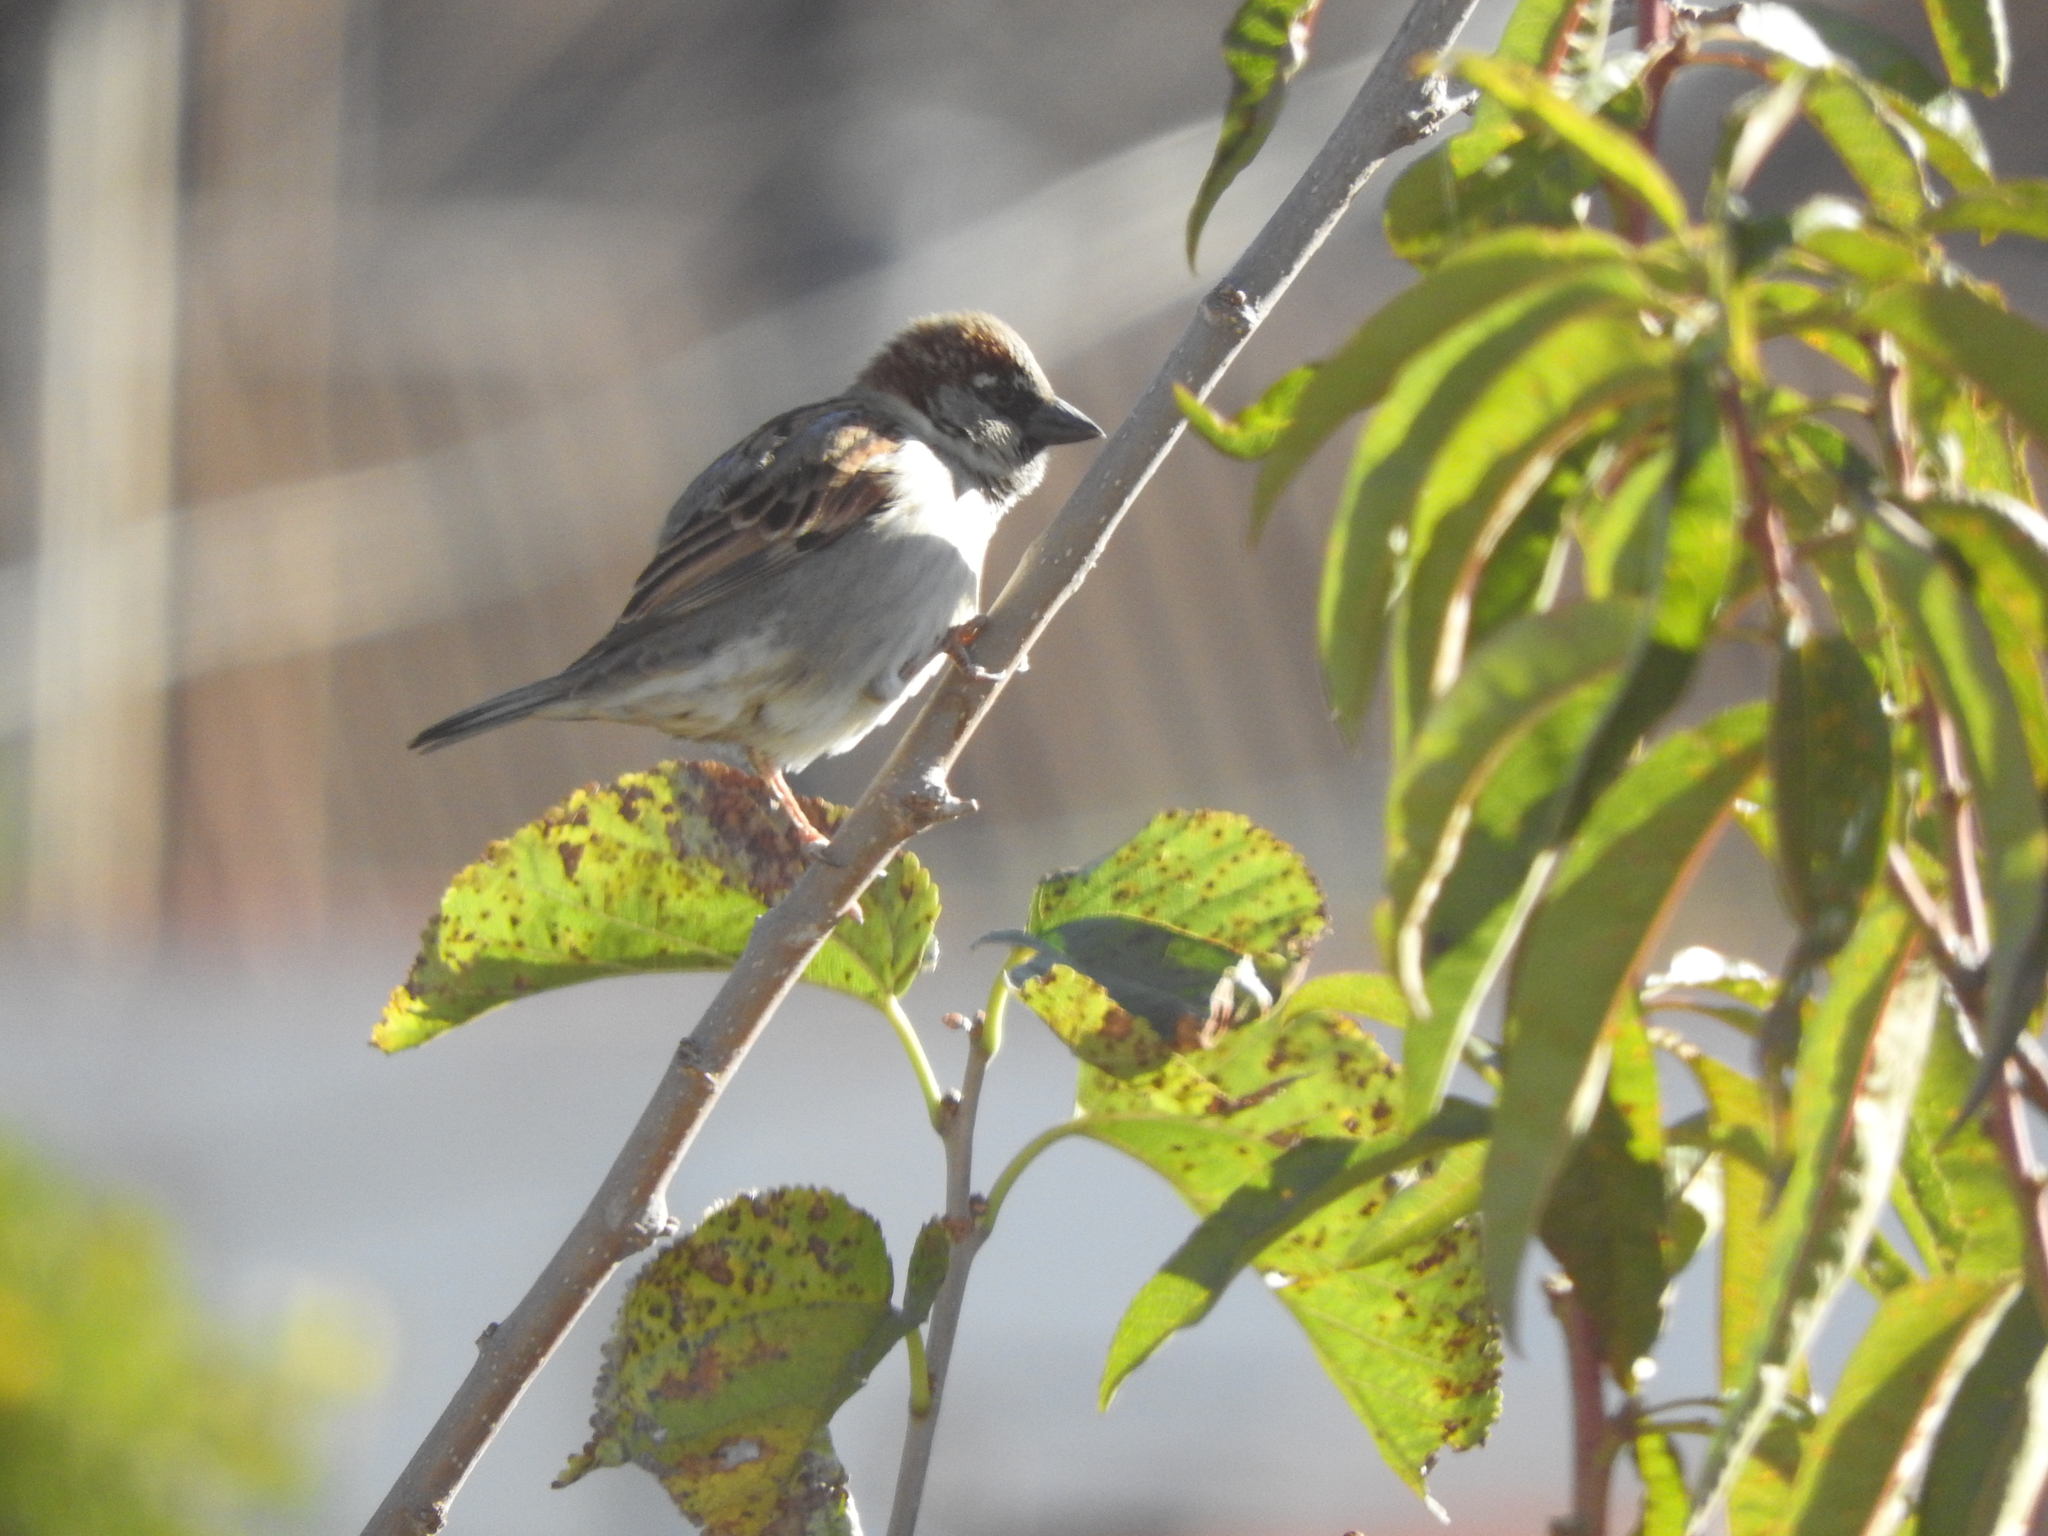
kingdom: Animalia
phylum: Chordata
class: Aves
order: Passeriformes
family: Passeridae
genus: Passer
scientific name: Passer domesticus
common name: House sparrow
